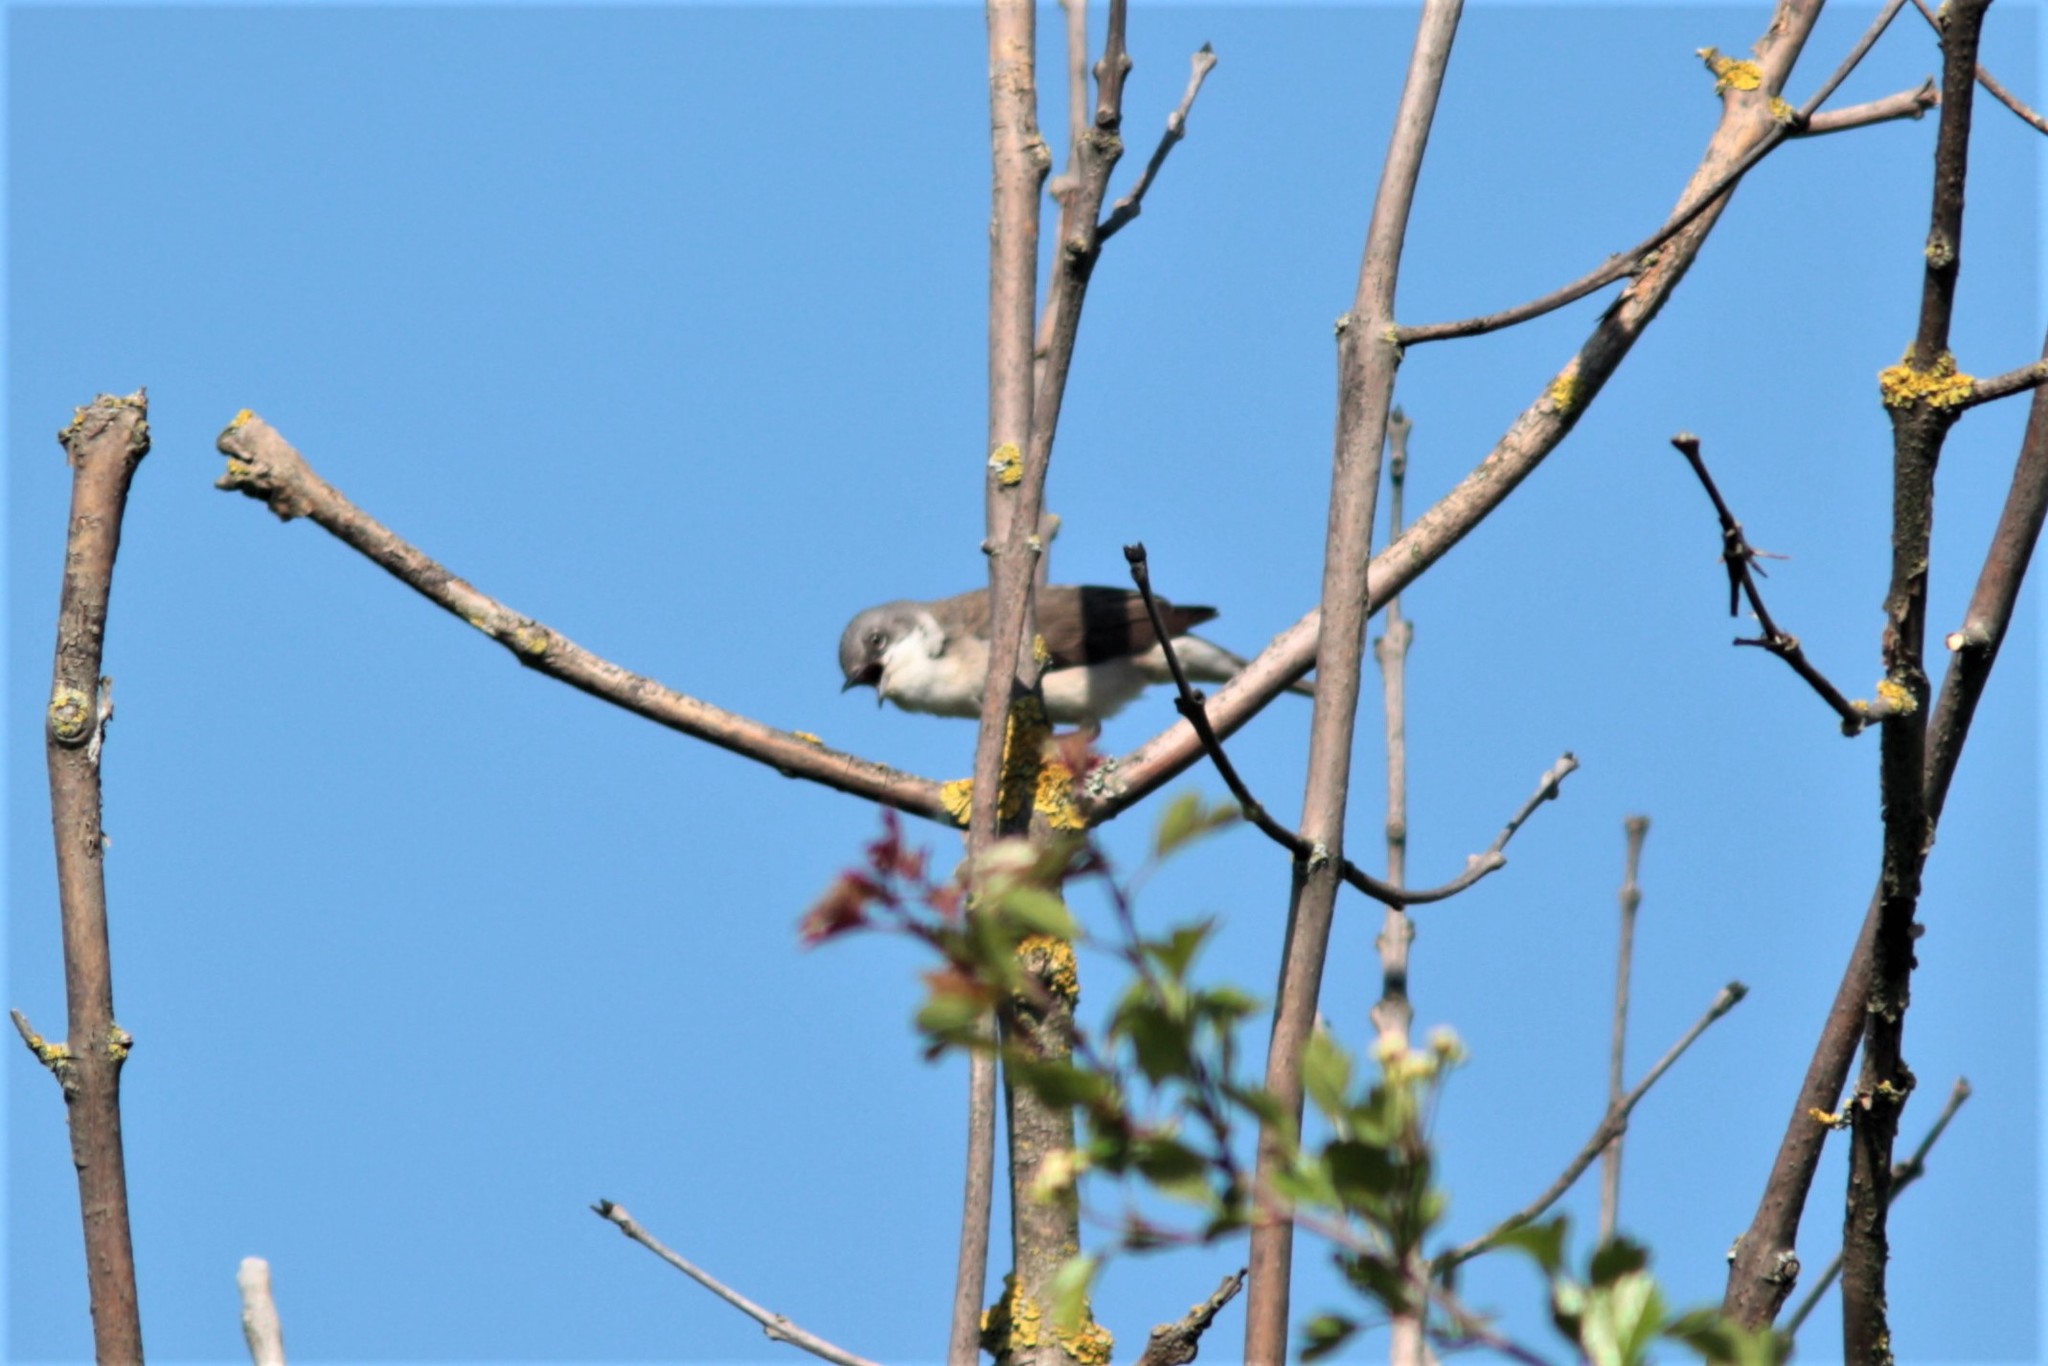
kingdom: Animalia
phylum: Chordata
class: Aves
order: Passeriformes
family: Sylviidae
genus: Sylvia
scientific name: Sylvia curruca
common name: Lesser whitethroat
